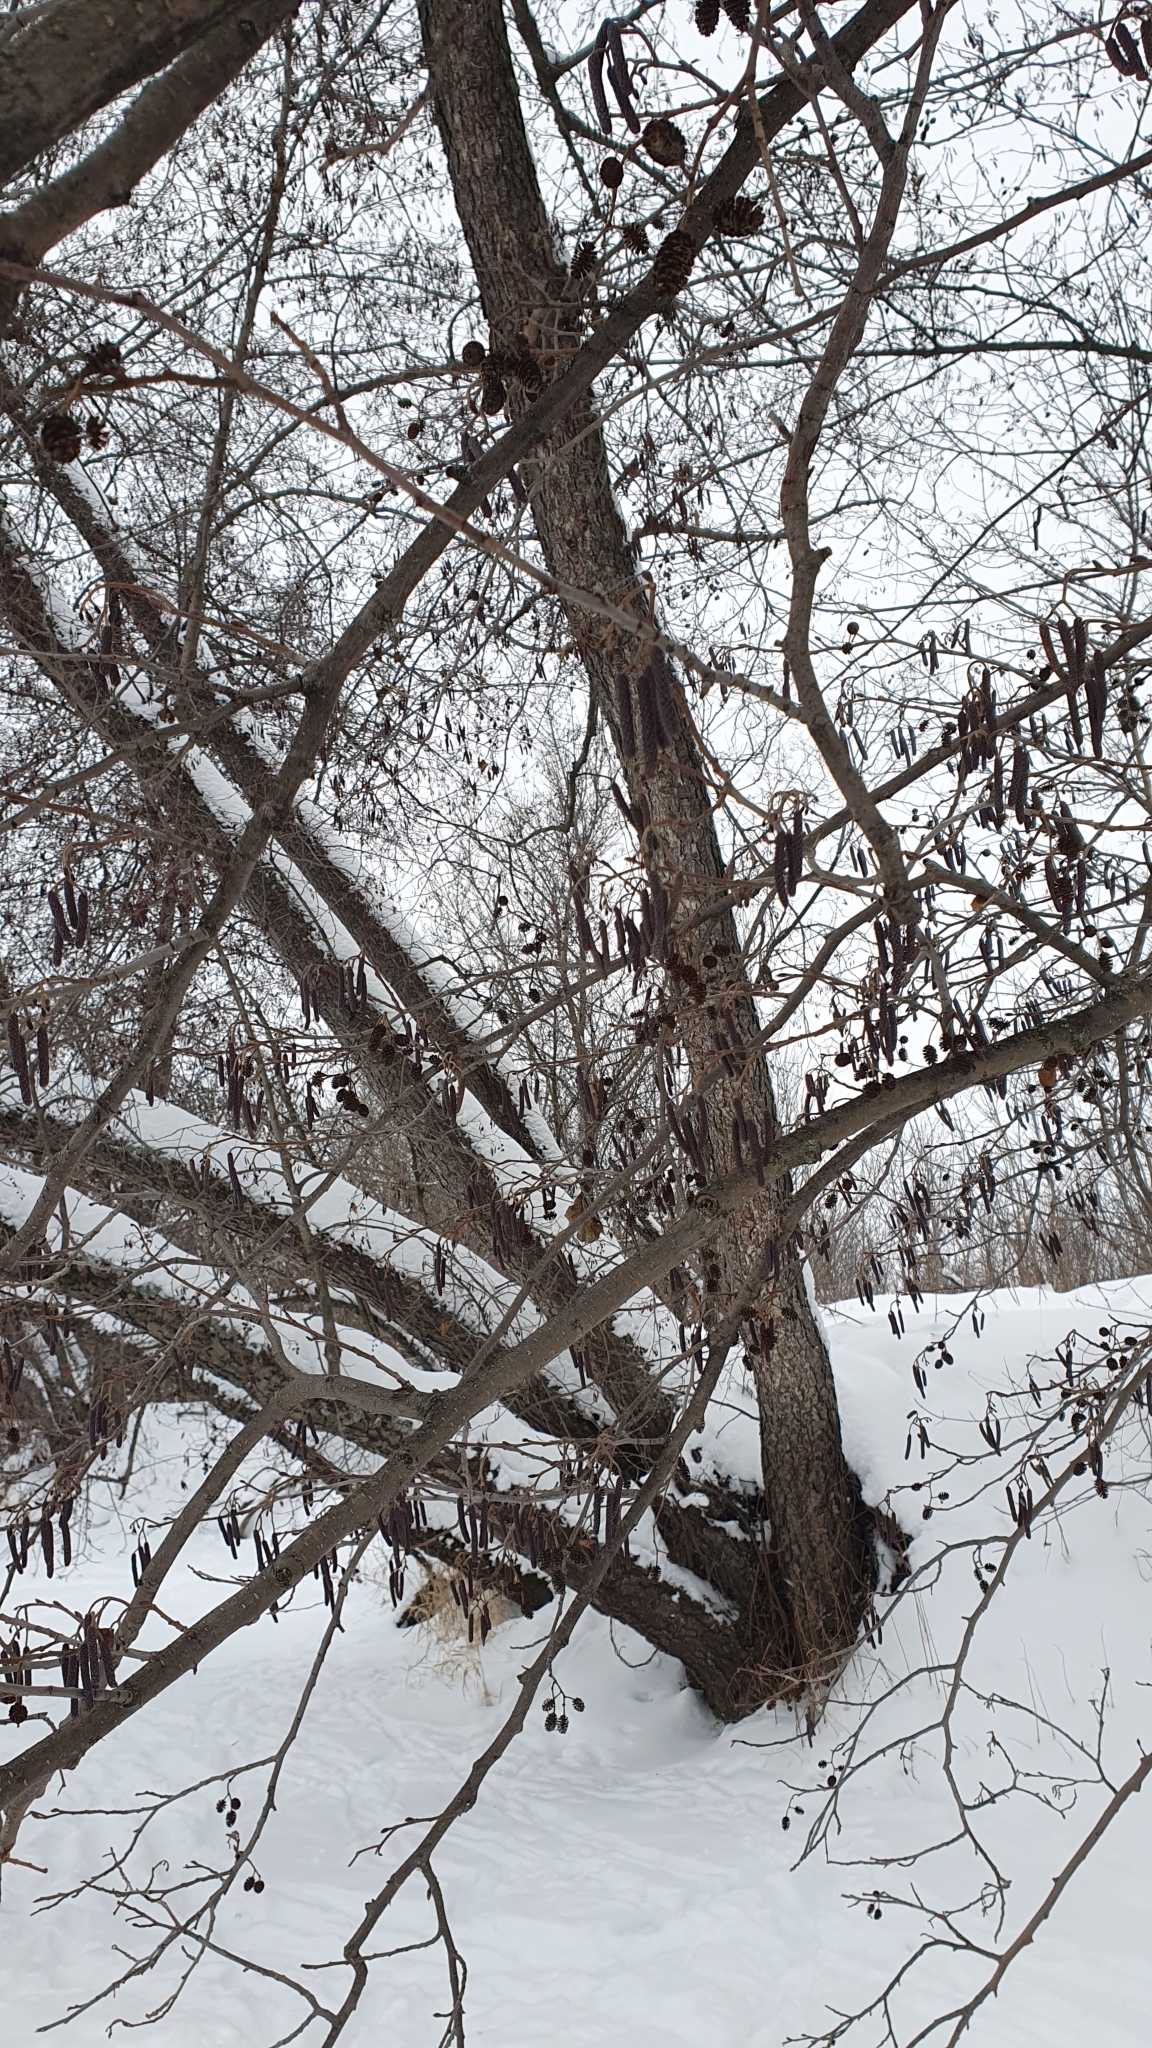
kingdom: Plantae
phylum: Tracheophyta
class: Magnoliopsida
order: Fagales
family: Betulaceae
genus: Alnus
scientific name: Alnus glutinosa
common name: Black alder
